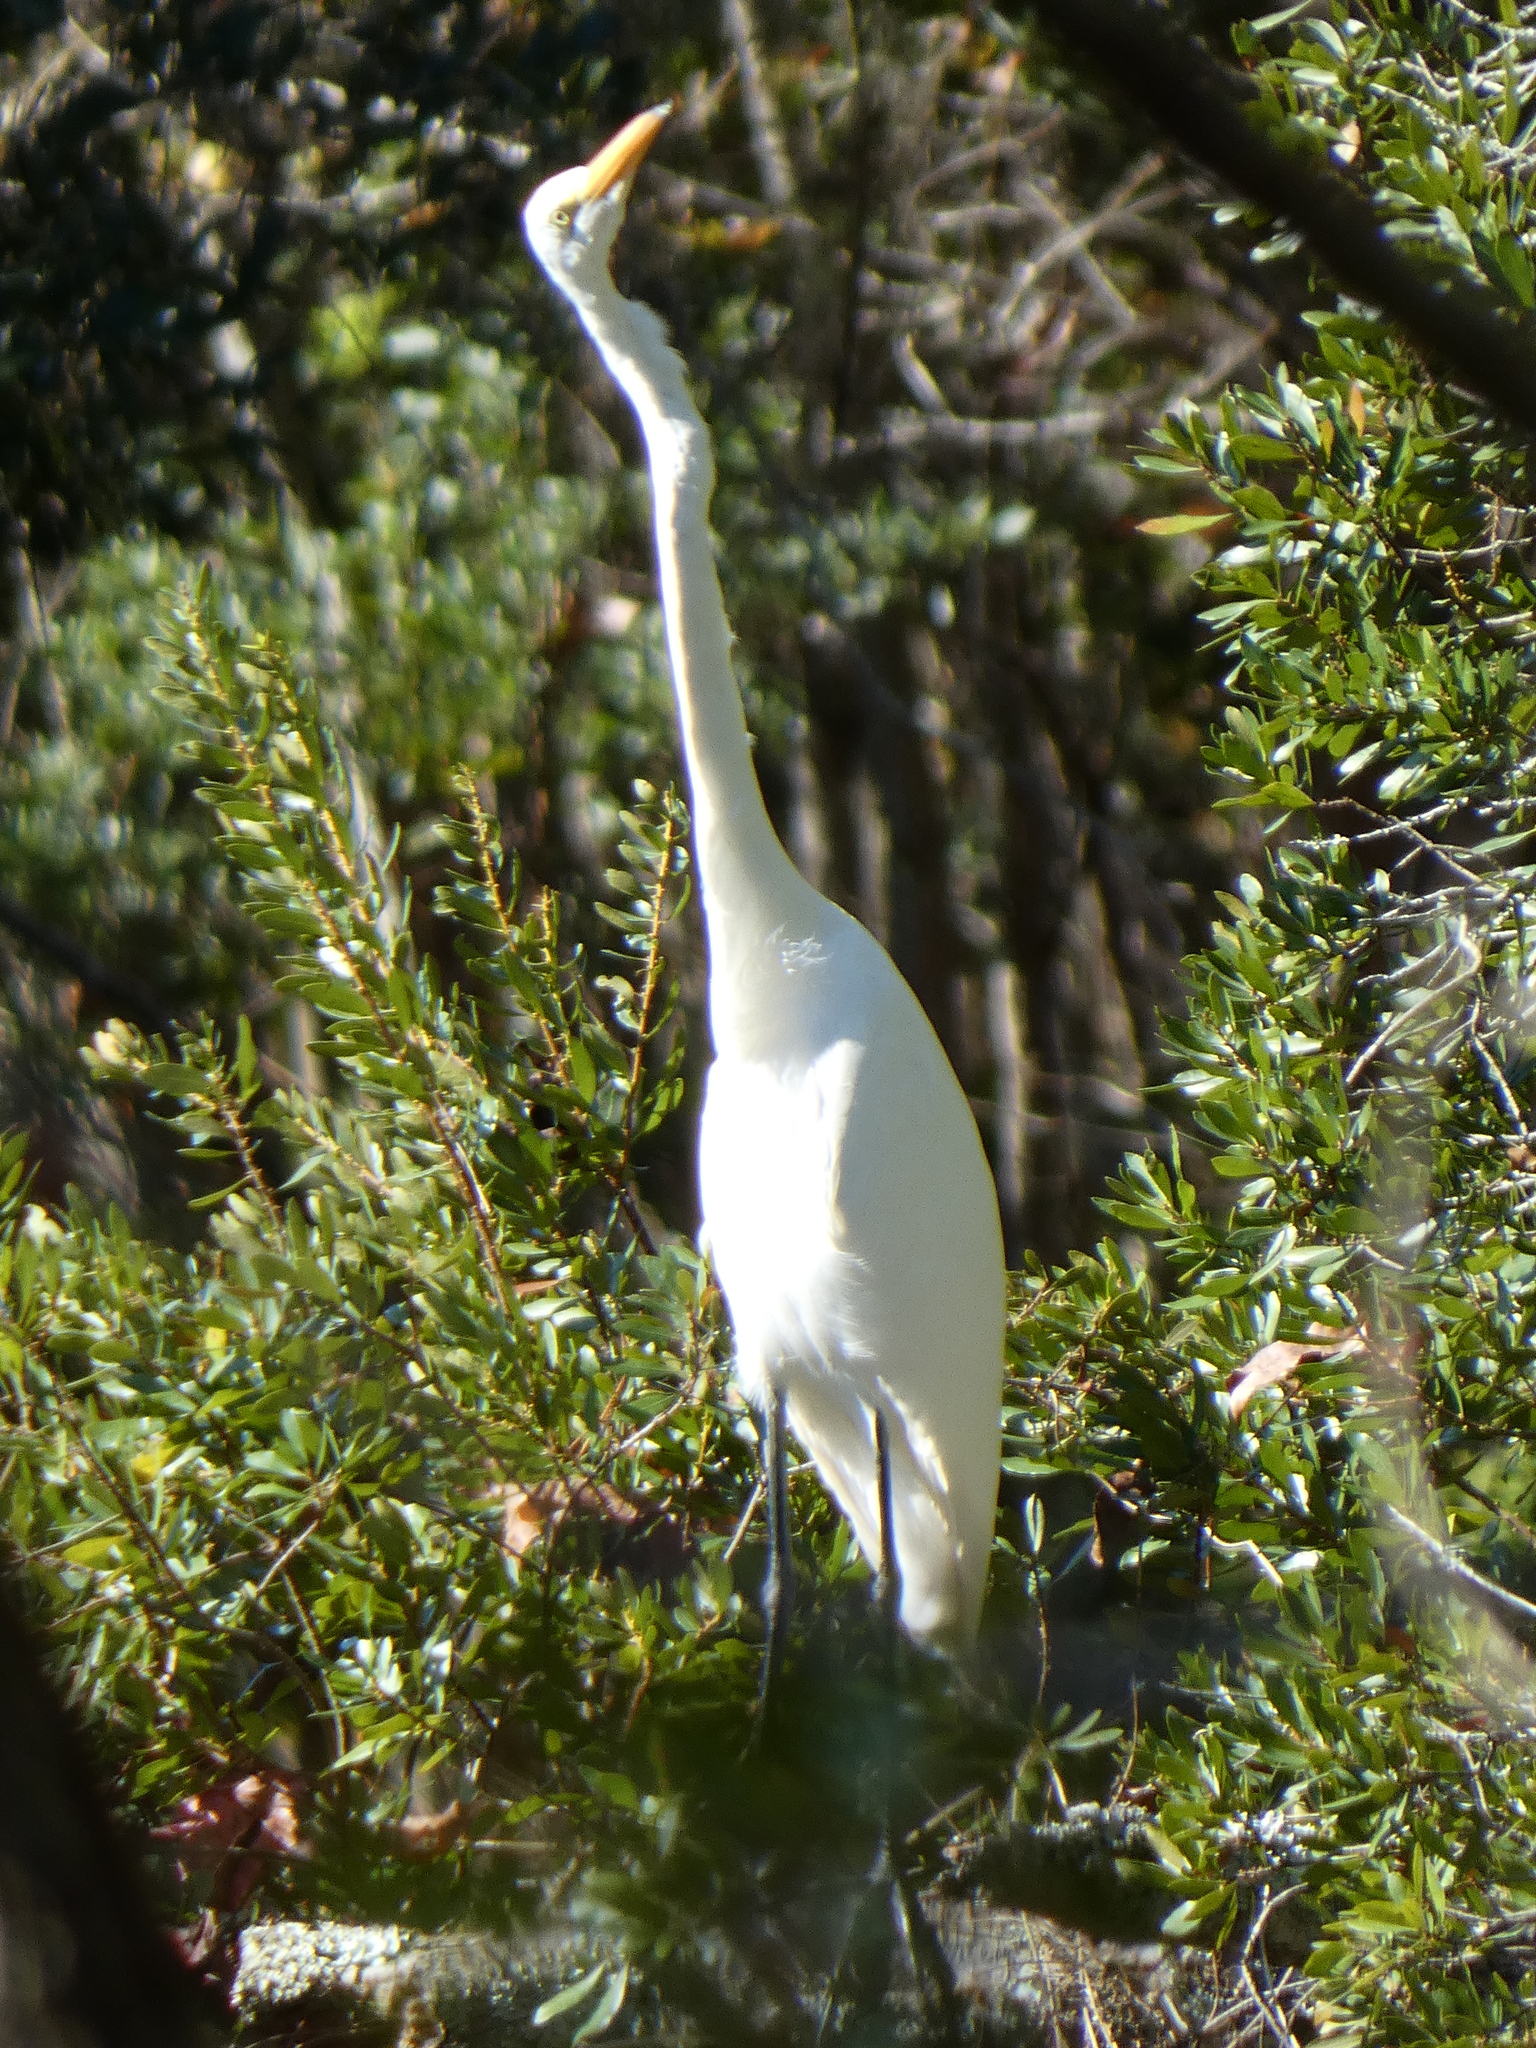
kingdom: Animalia
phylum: Chordata
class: Aves
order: Pelecaniformes
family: Ardeidae
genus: Ardea
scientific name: Ardea alba
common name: Great egret
